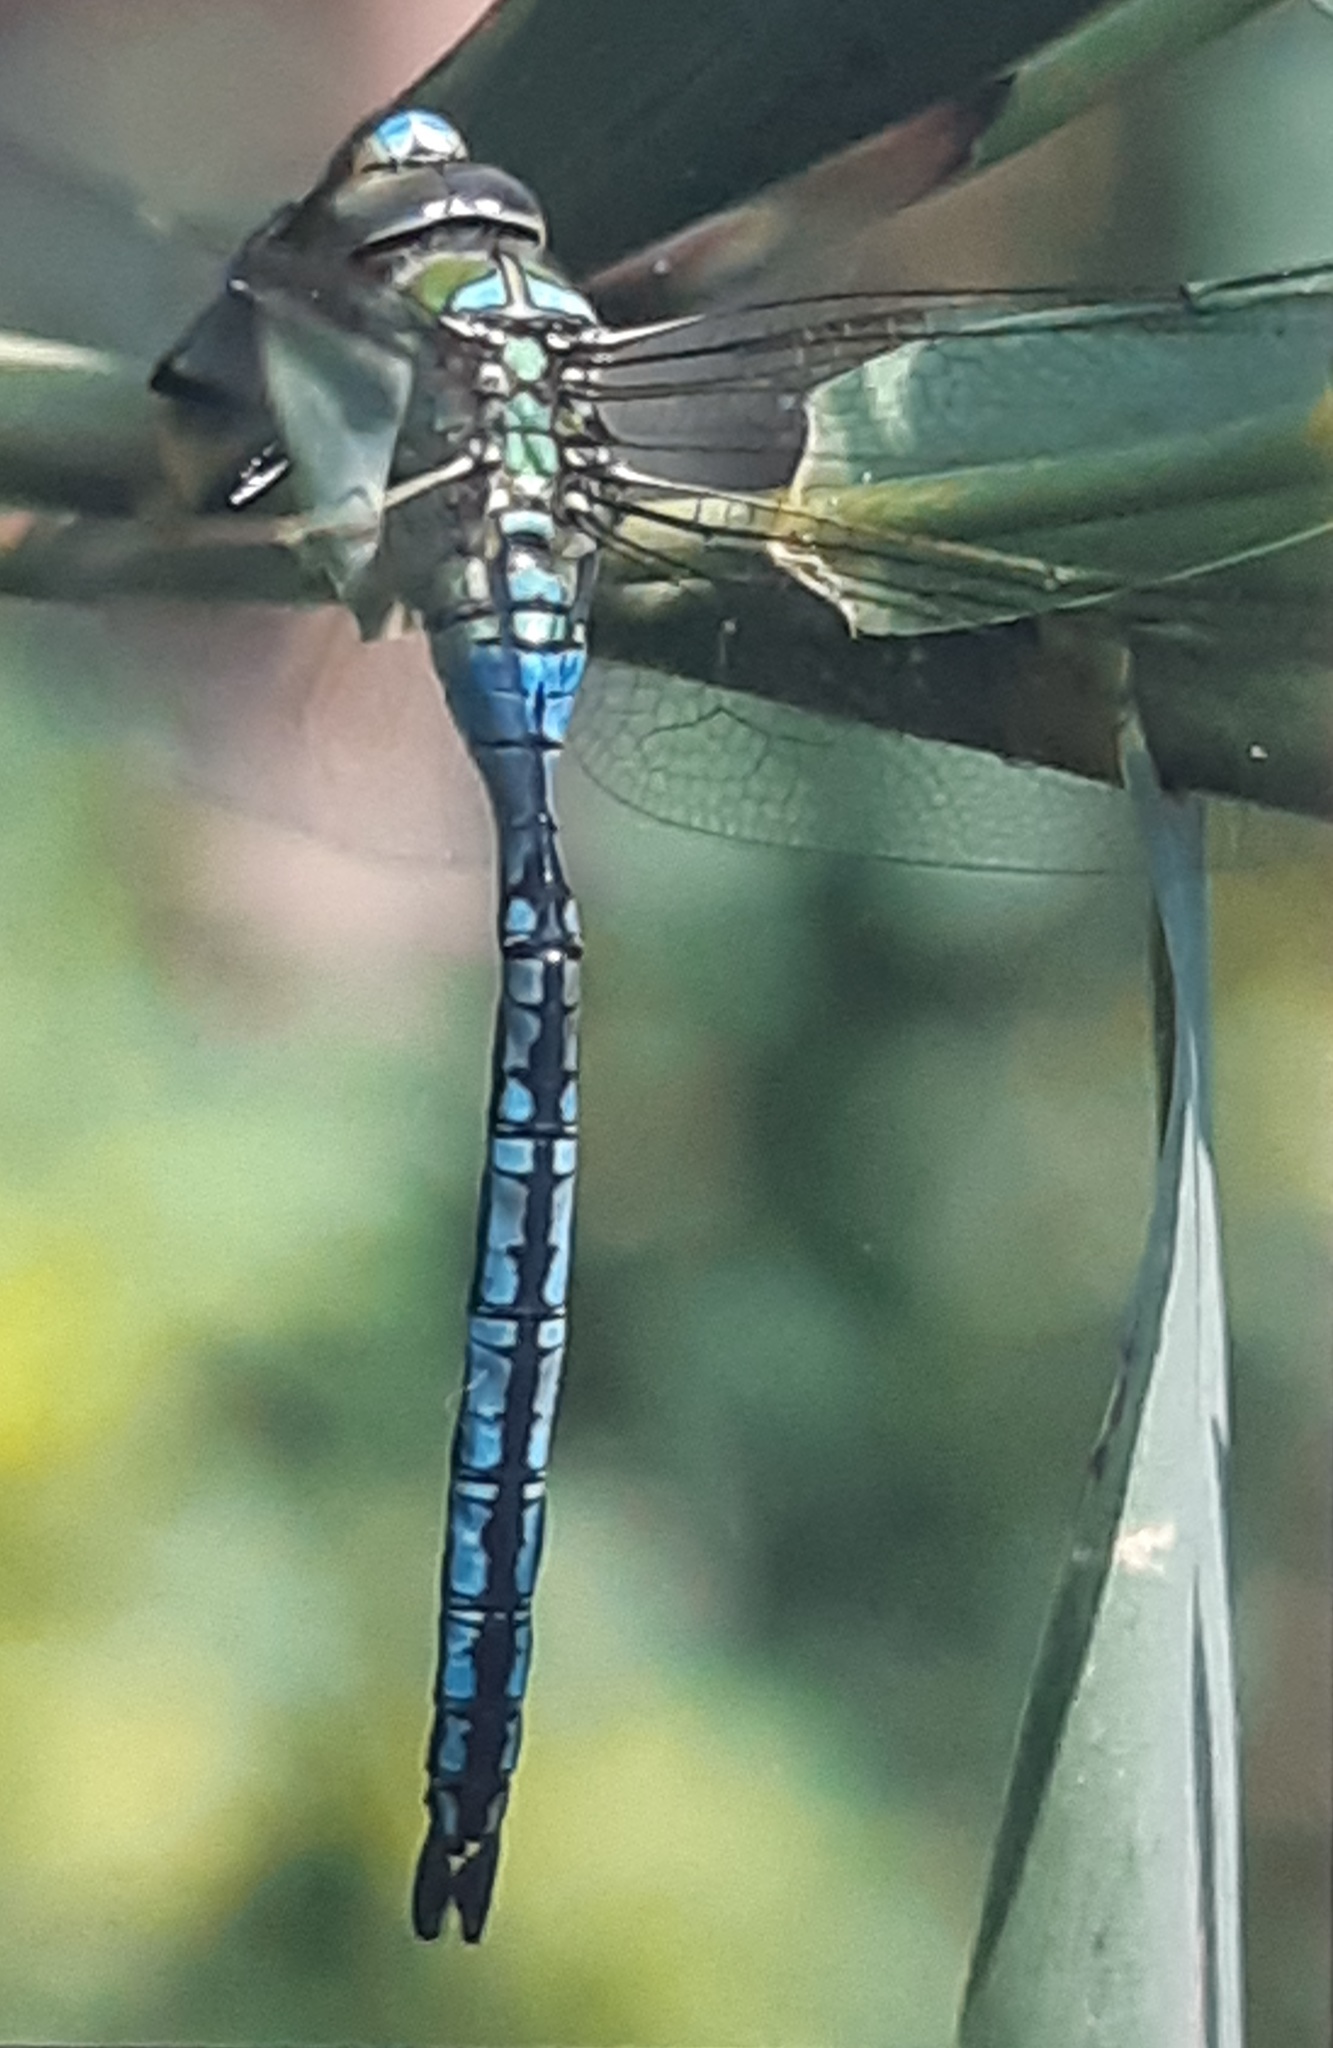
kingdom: Animalia
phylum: Arthropoda
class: Insecta
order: Odonata
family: Aeshnidae
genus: Anax
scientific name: Anax imperator
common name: Emperor dragonfly
